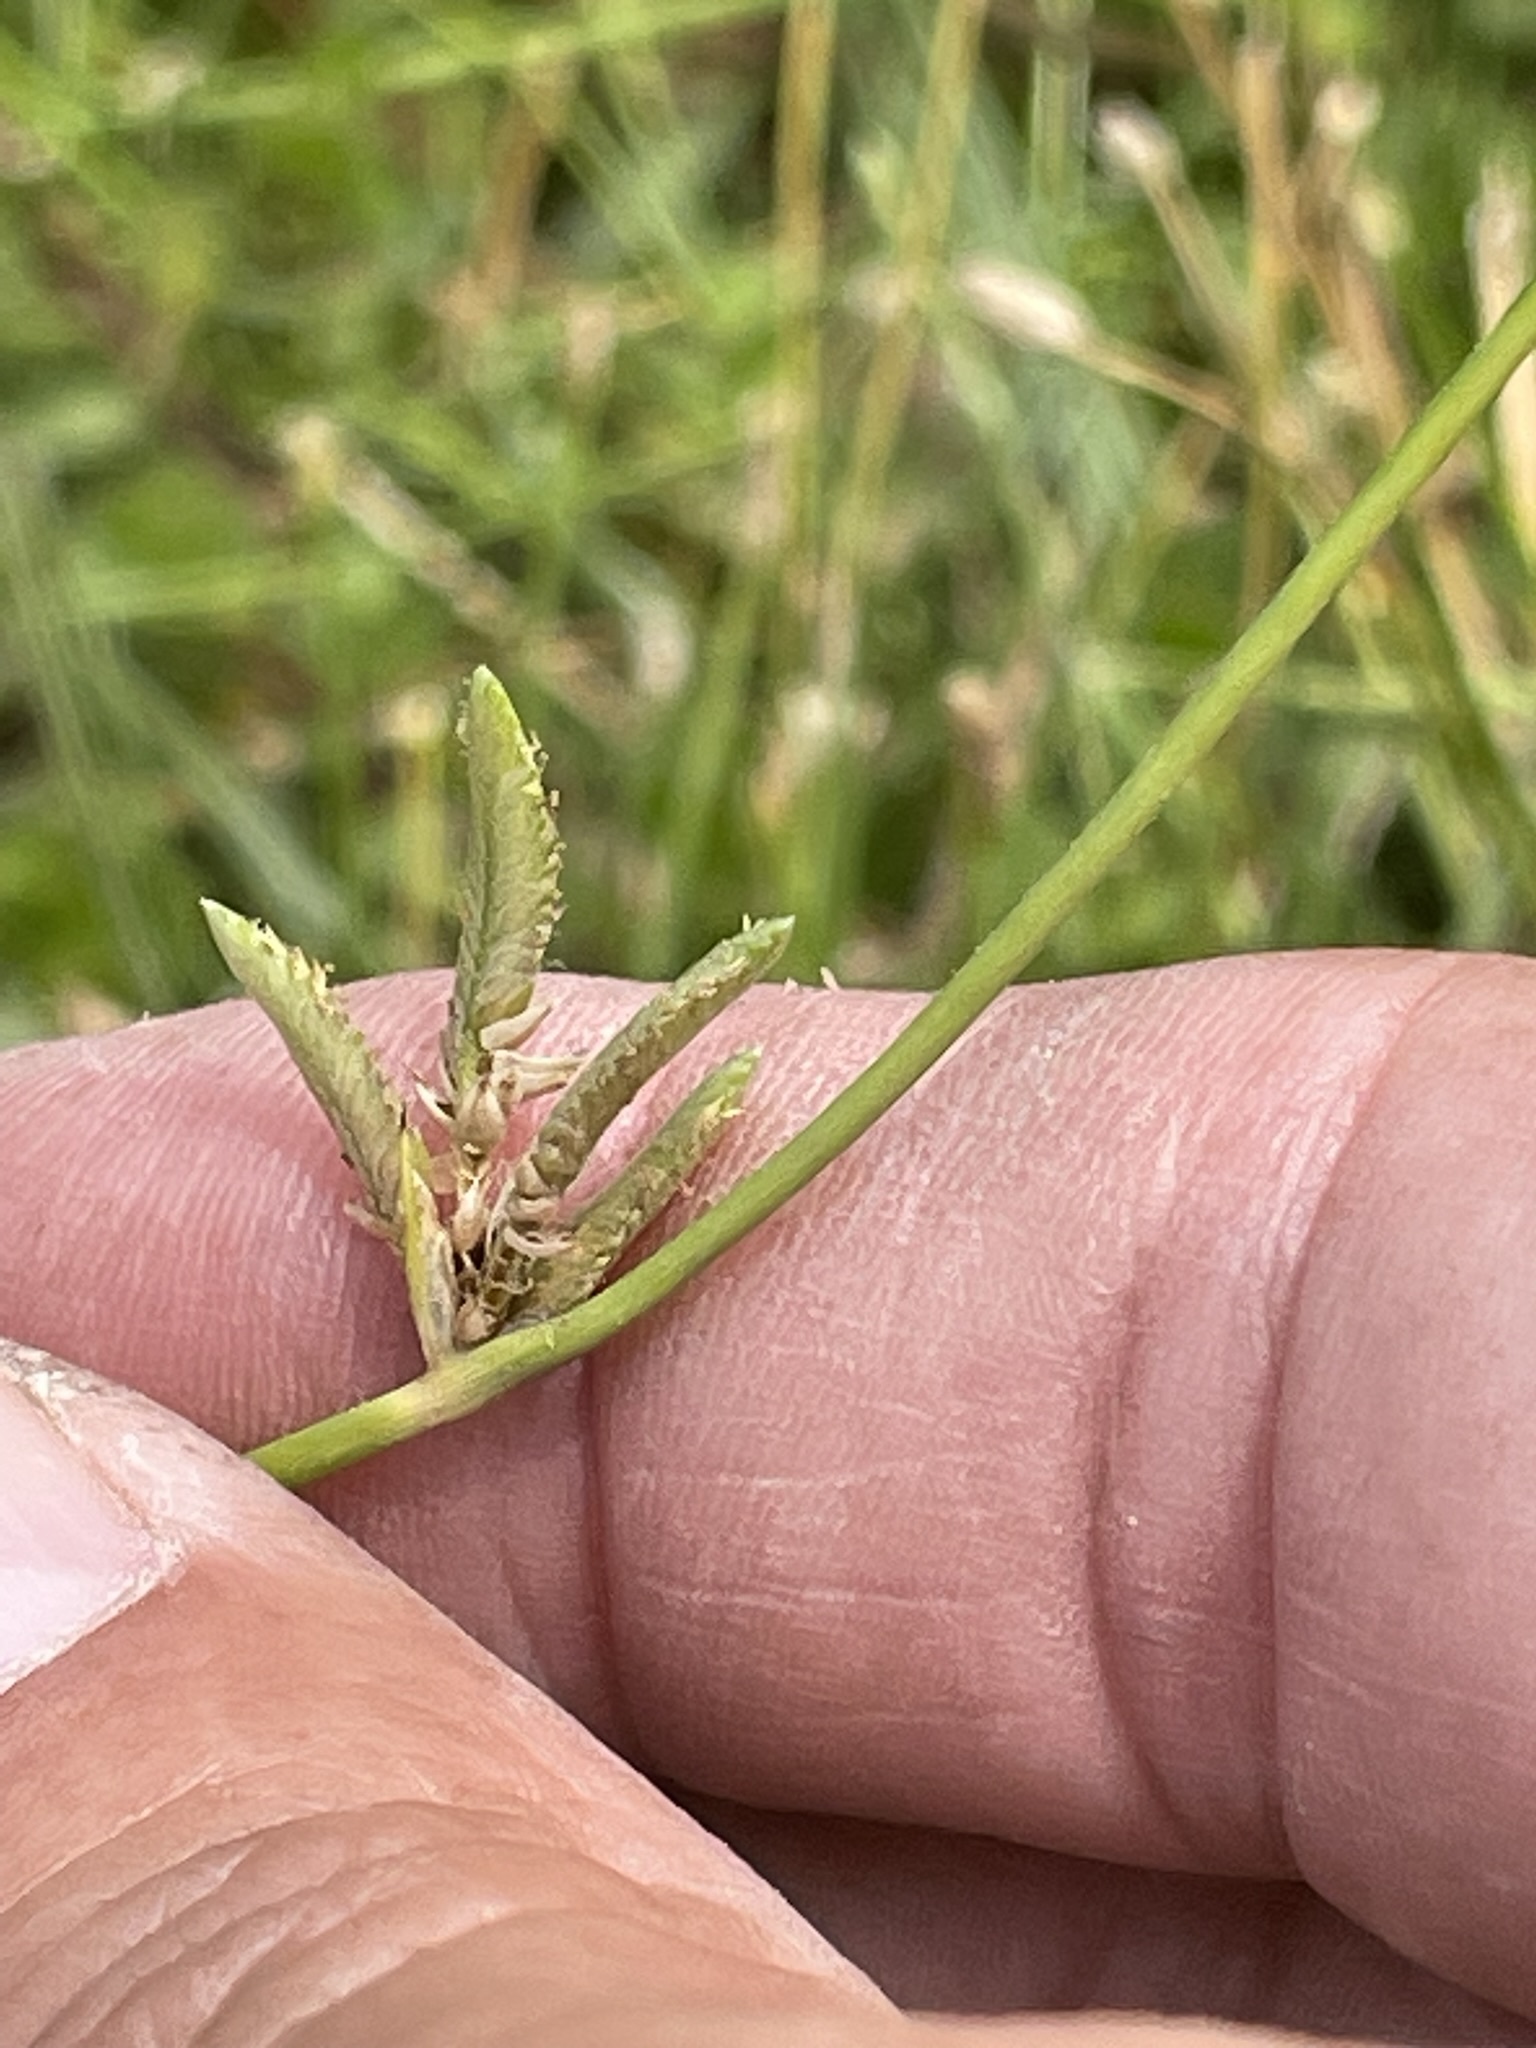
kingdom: Plantae
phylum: Tracheophyta
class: Liliopsida
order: Poales
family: Cyperaceae
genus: Cyperus
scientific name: Cyperus laevigatus
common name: Smooth flat sedge
